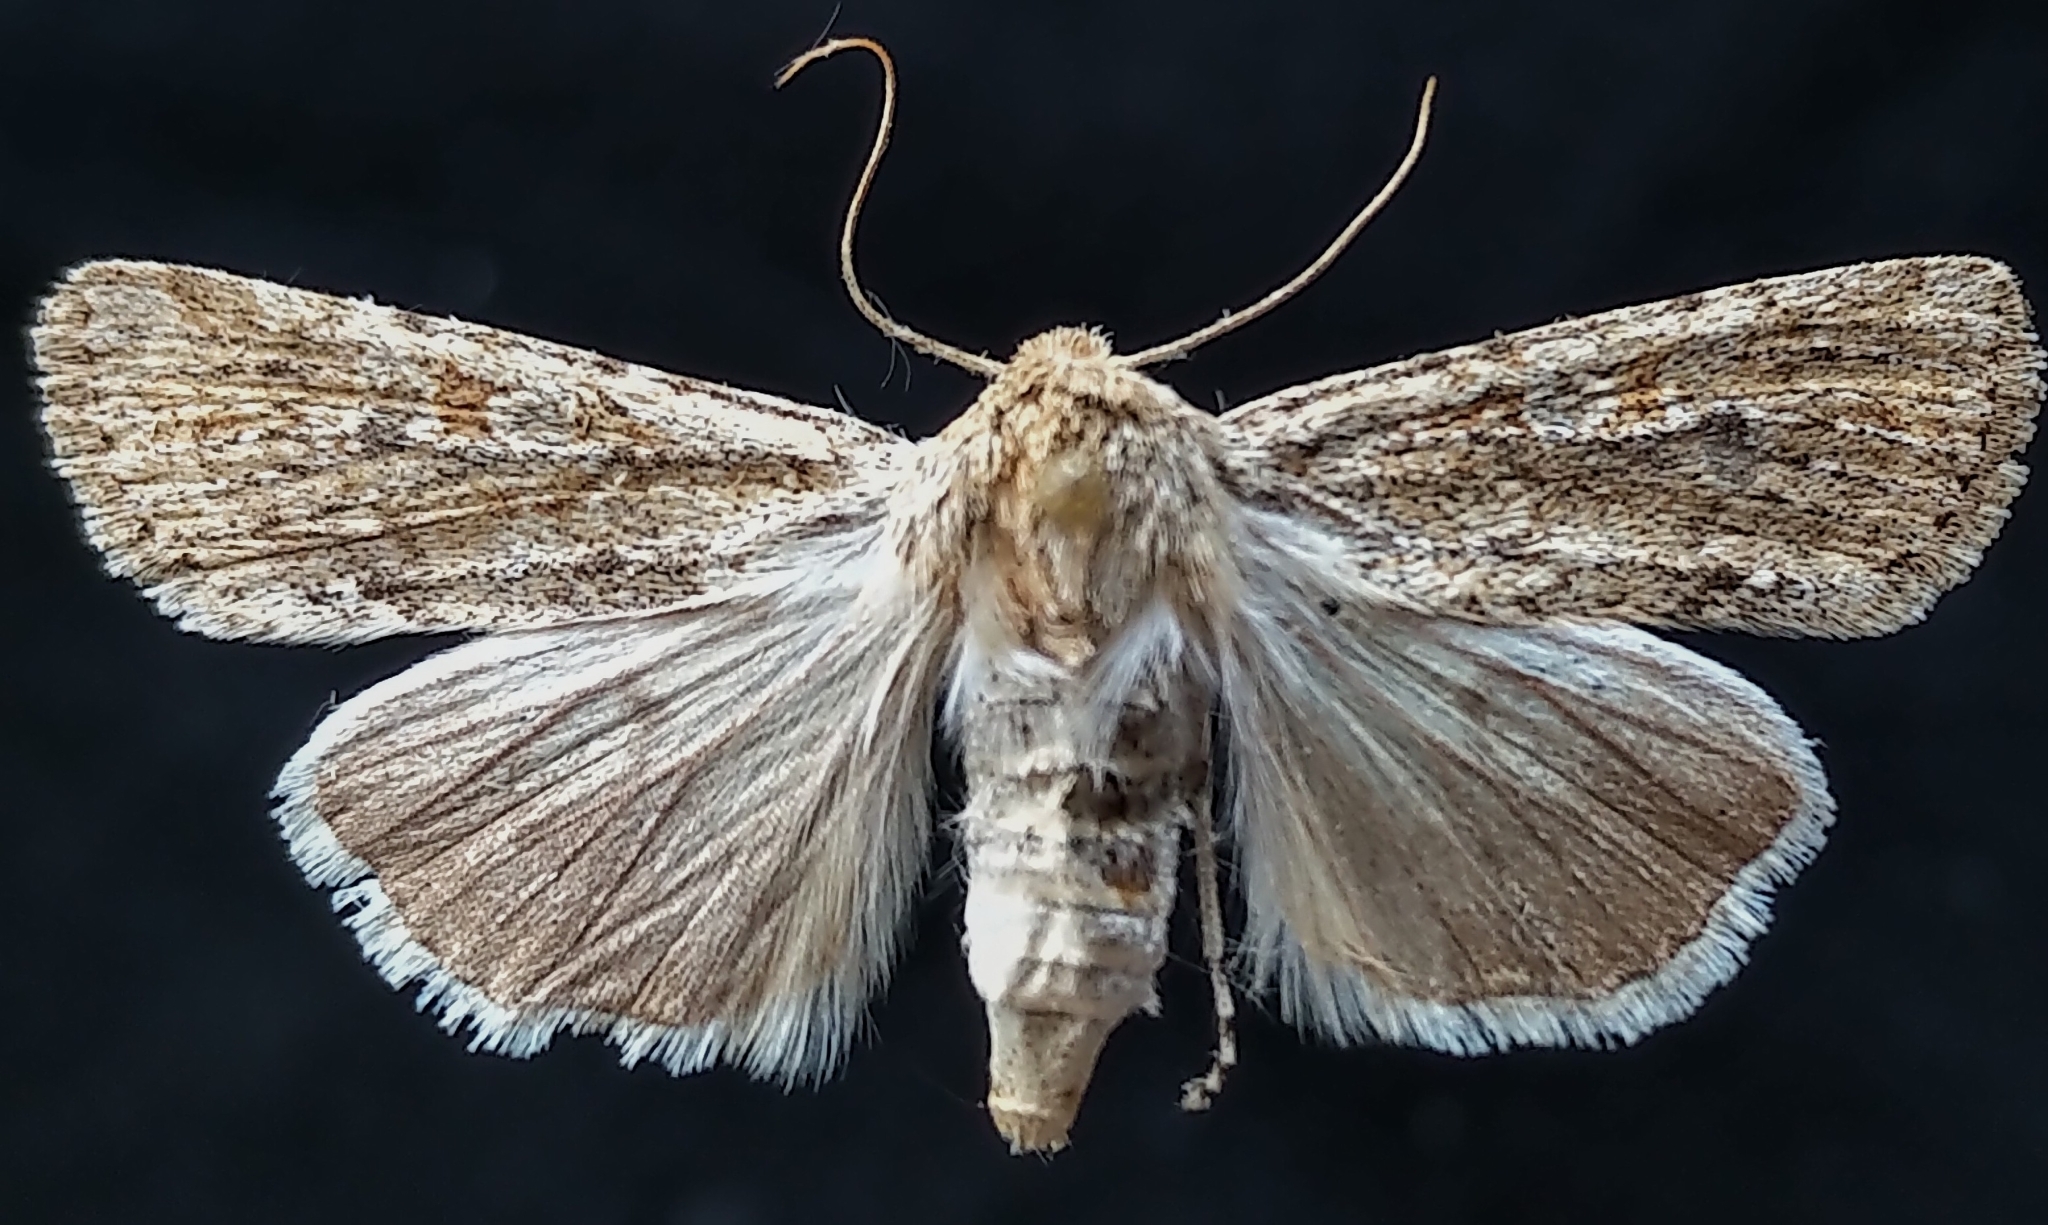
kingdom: Animalia
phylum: Arthropoda
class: Insecta
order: Lepidoptera
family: Noctuidae
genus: Euxoa
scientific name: Euxoa aurulenta
